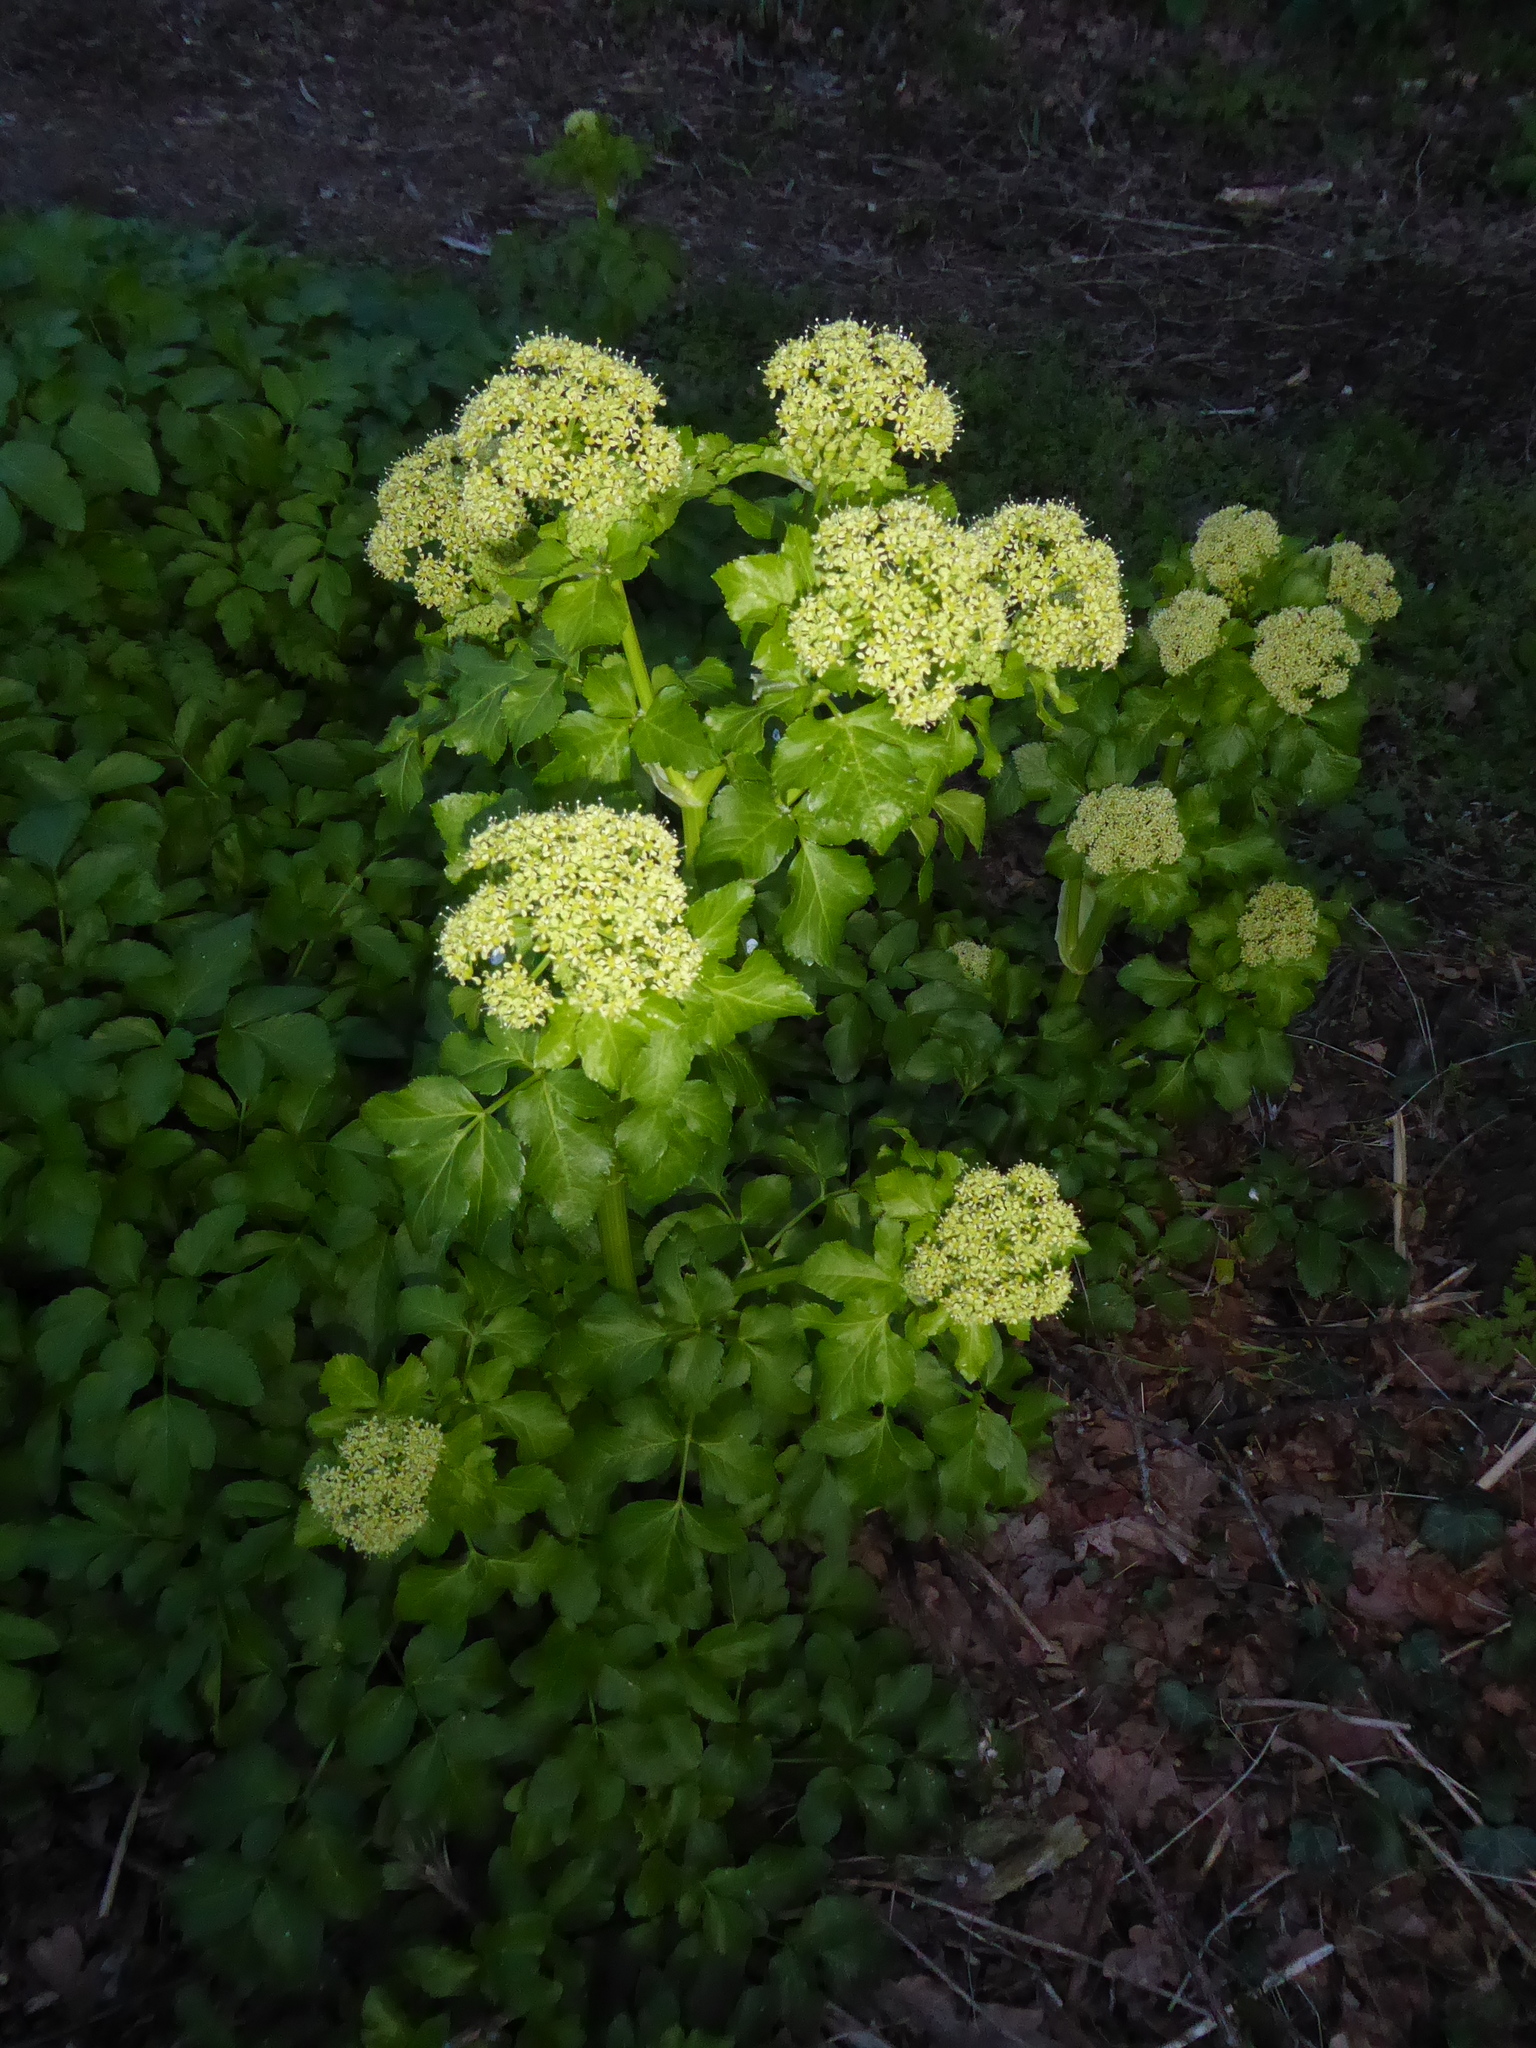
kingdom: Plantae
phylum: Tracheophyta
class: Magnoliopsida
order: Apiales
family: Apiaceae
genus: Smyrnium
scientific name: Smyrnium olusatrum
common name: Alexanders
